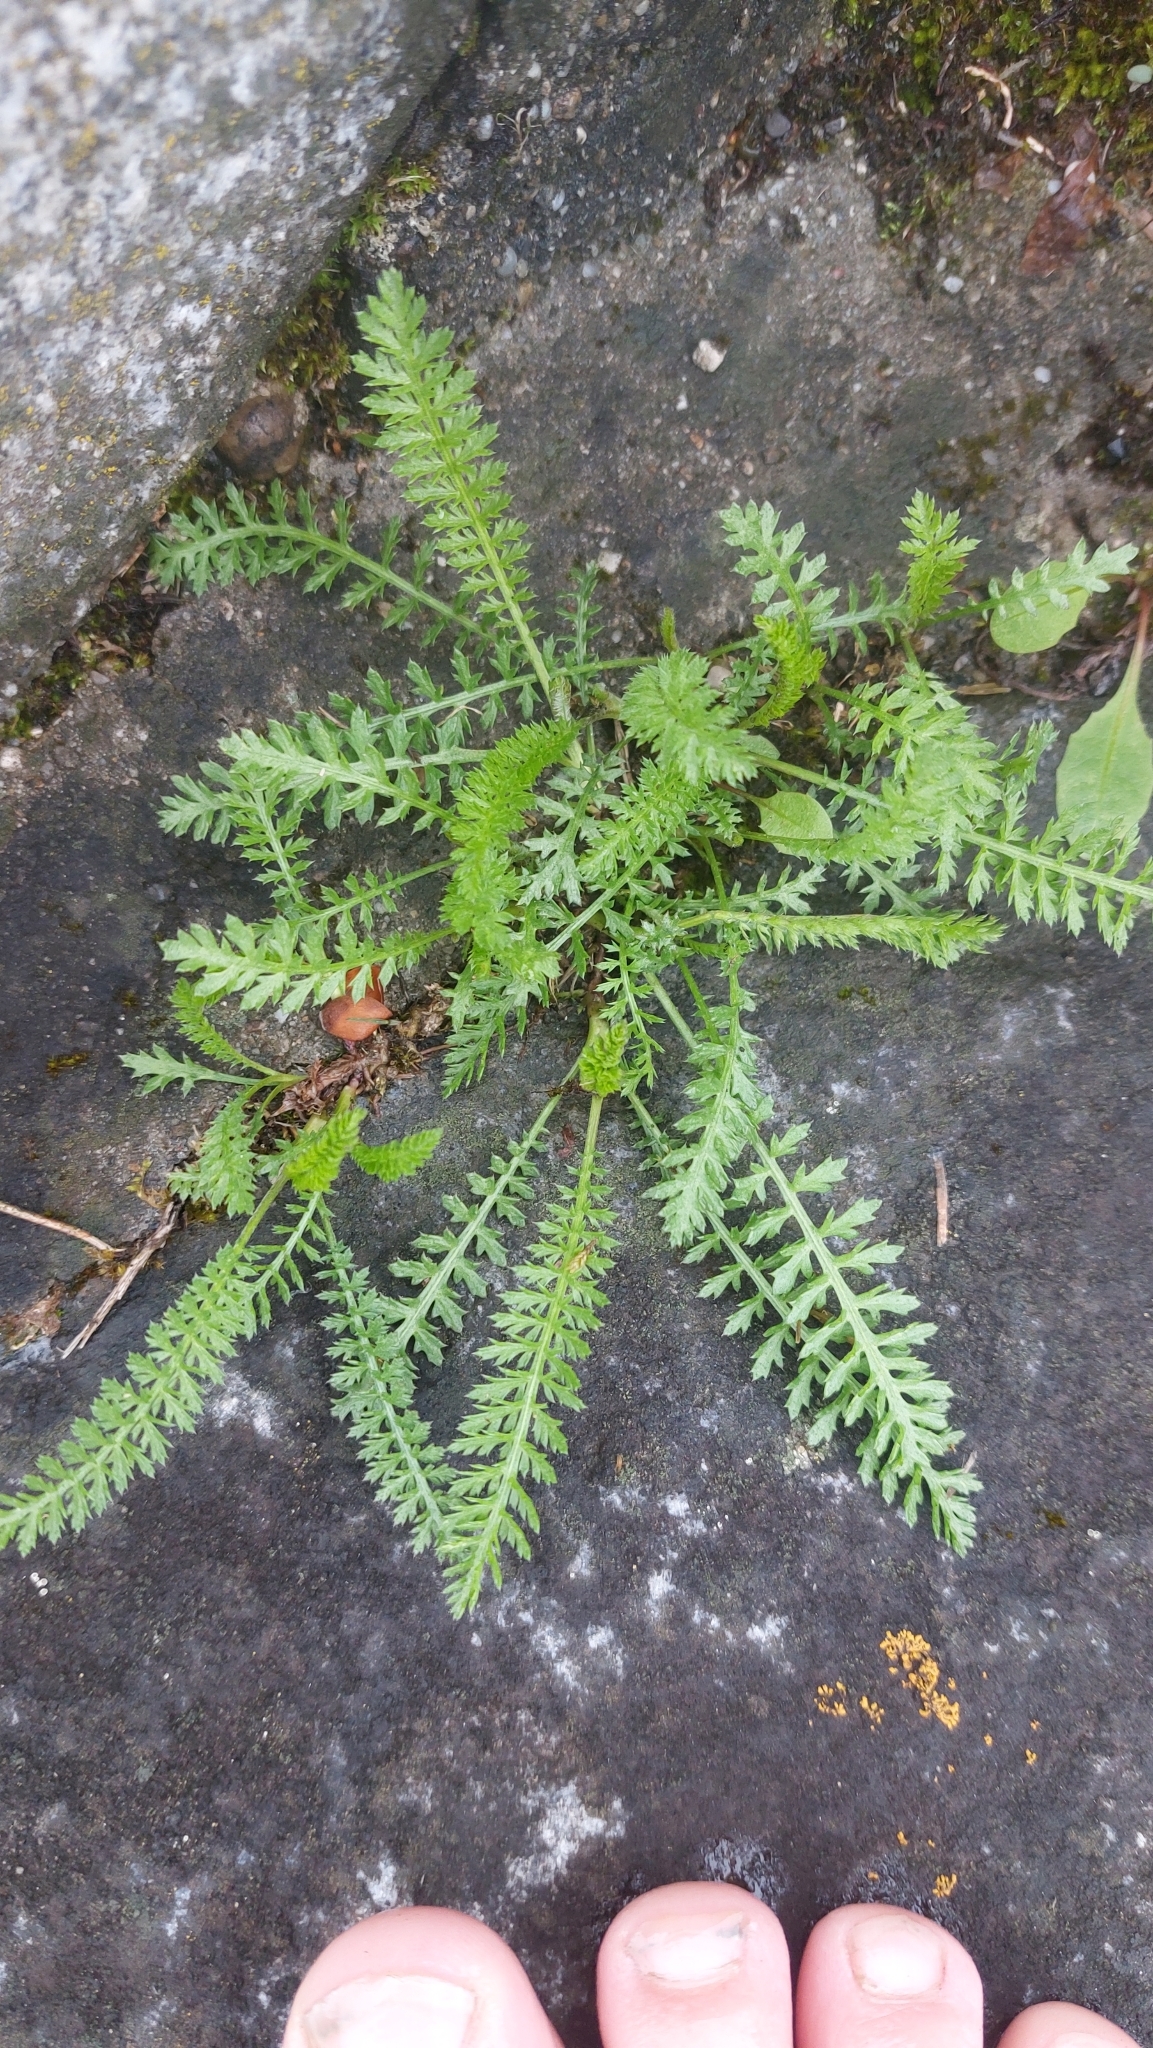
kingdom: Plantae
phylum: Tracheophyta
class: Magnoliopsida
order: Asterales
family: Asteraceae
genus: Achillea
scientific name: Achillea millefolium
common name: Yarrow
